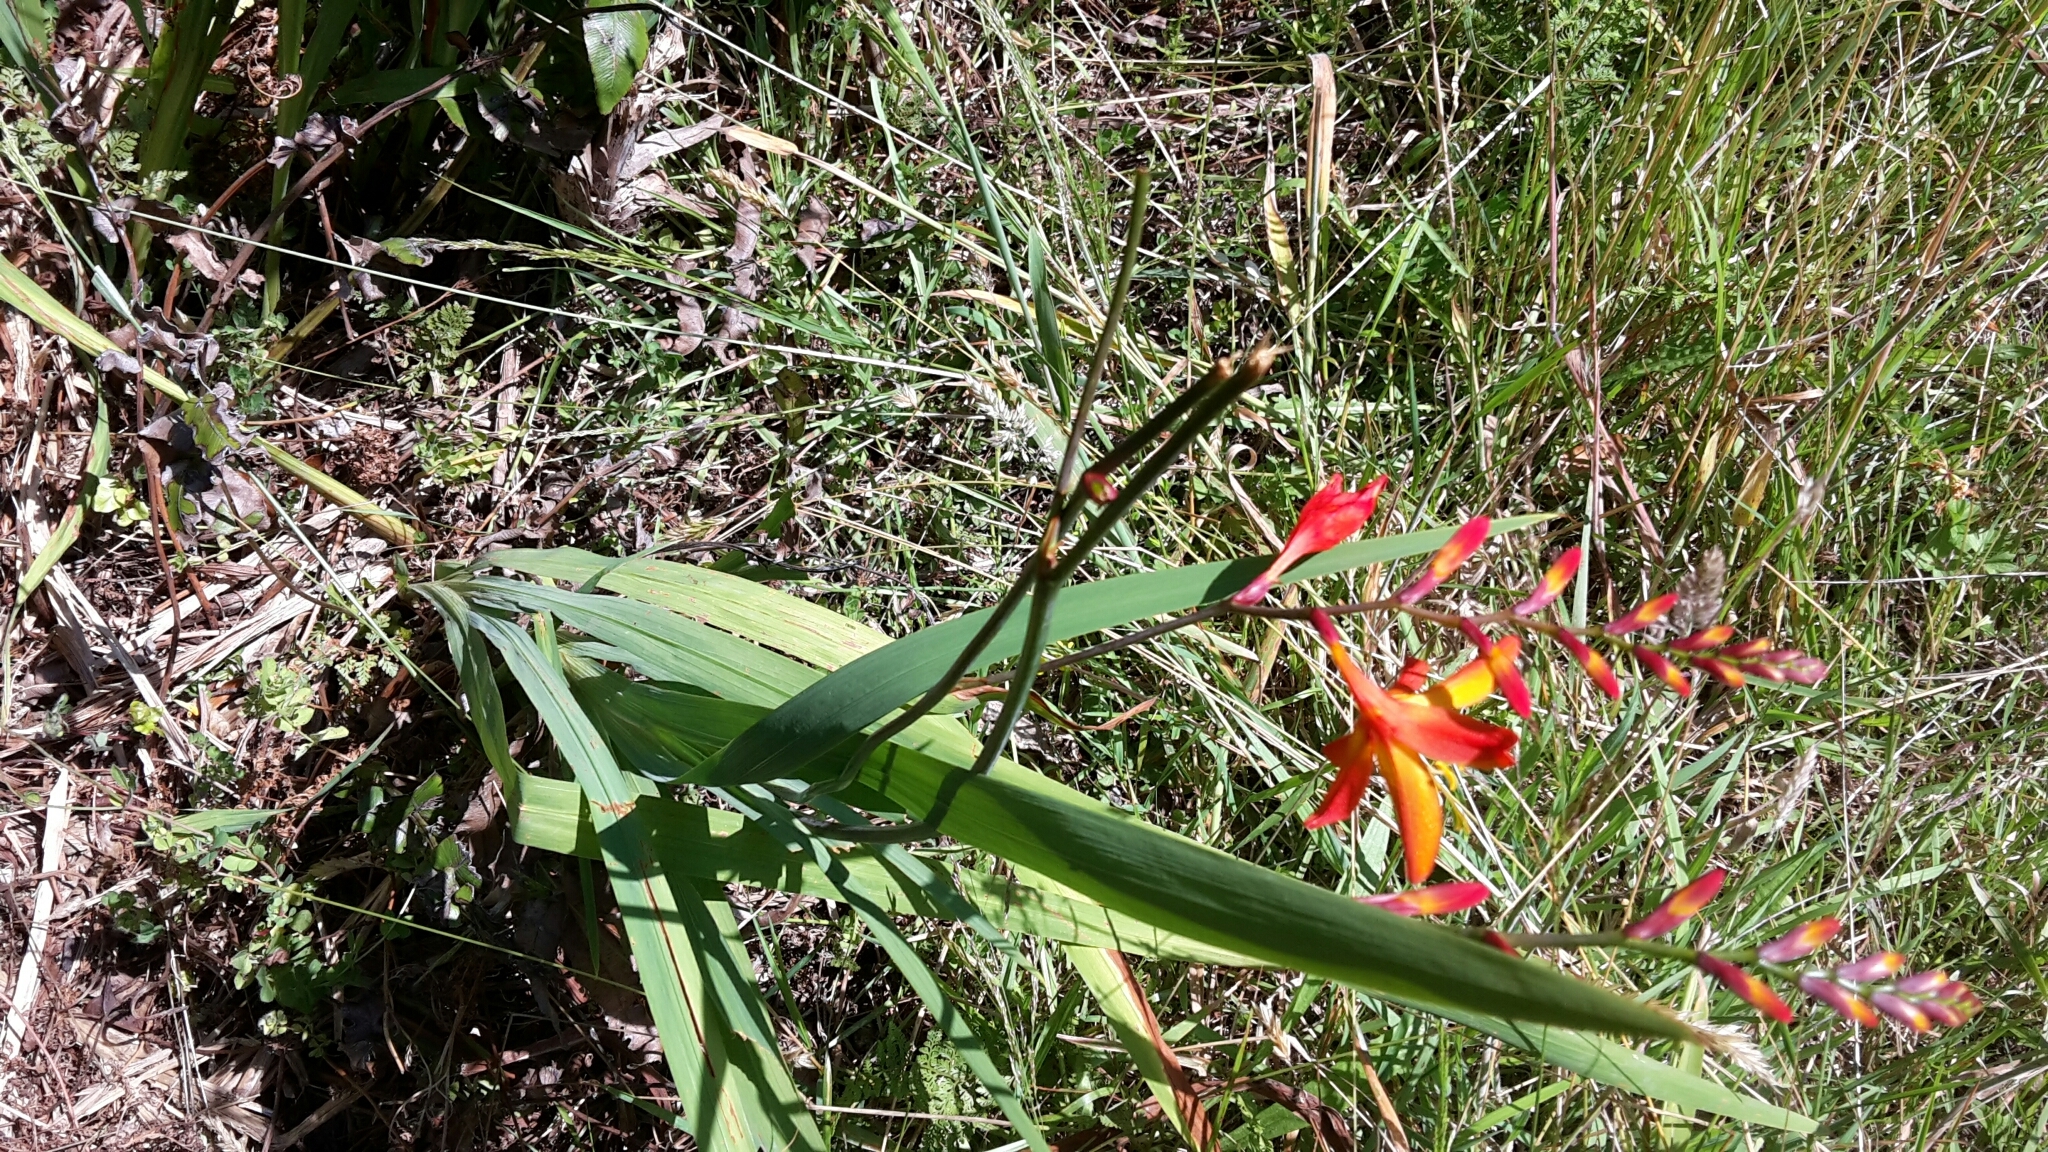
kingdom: Plantae
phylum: Tracheophyta
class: Liliopsida
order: Asparagales
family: Iridaceae
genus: Crocosmia
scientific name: Crocosmia crocosmiiflora
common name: Montbretia
